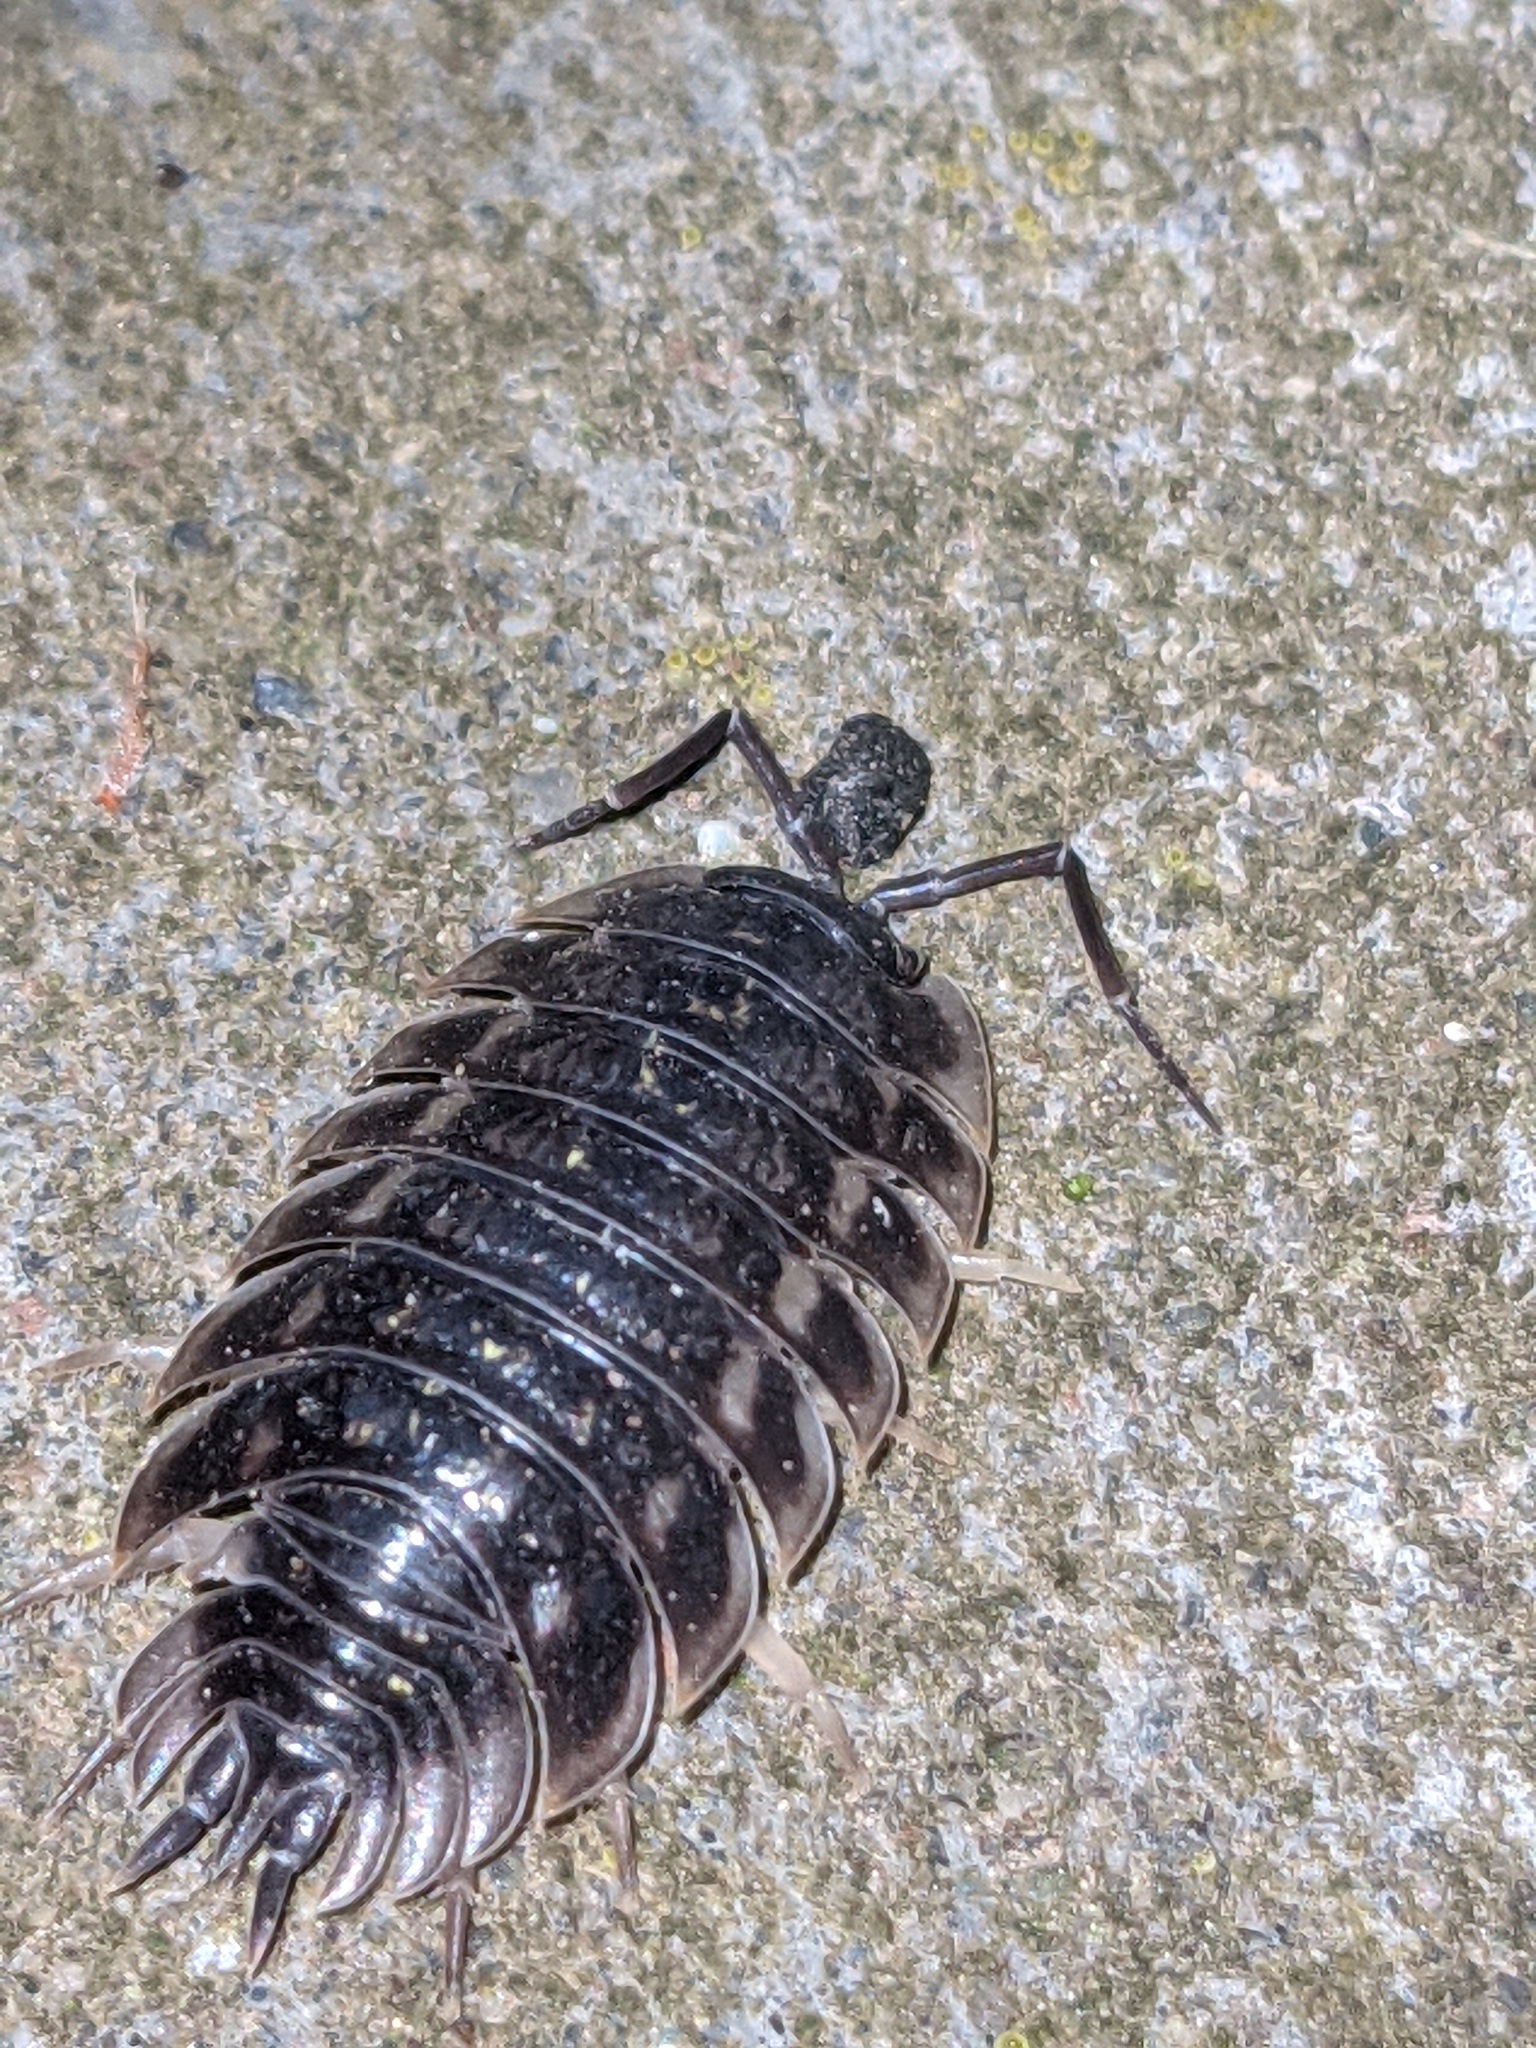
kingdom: Animalia
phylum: Arthropoda
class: Malacostraca
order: Isopoda
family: Oniscidae
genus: Oniscus
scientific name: Oniscus asellus
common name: Common shiny woodlouse
